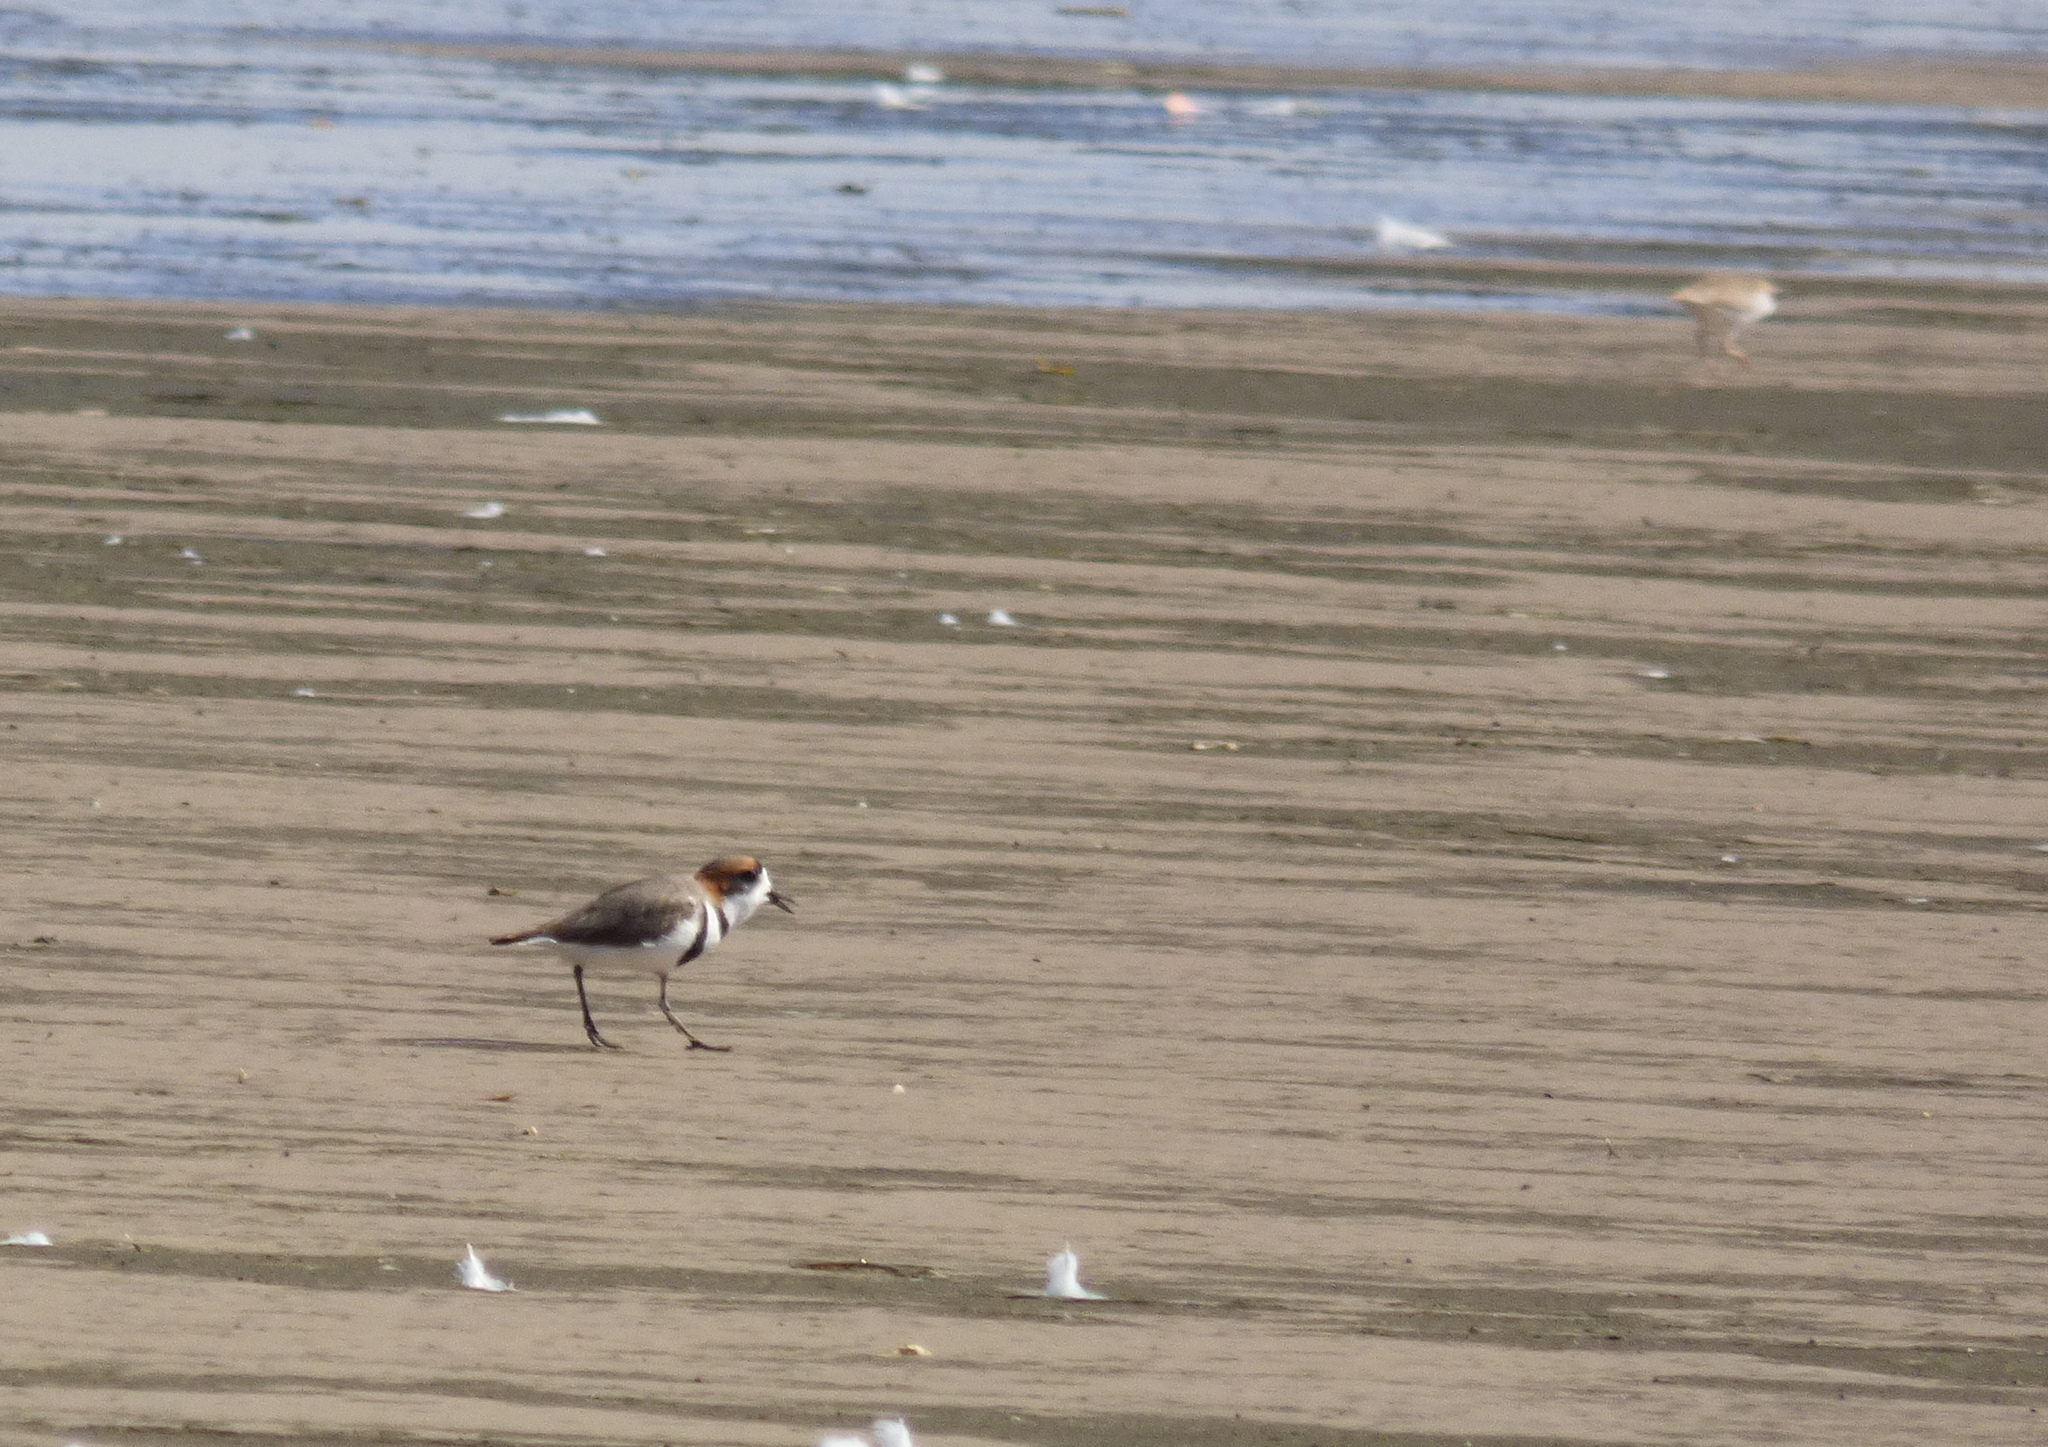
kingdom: Animalia
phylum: Chordata
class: Aves
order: Charadriiformes
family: Charadriidae
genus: Anarhynchus
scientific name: Anarhynchus
